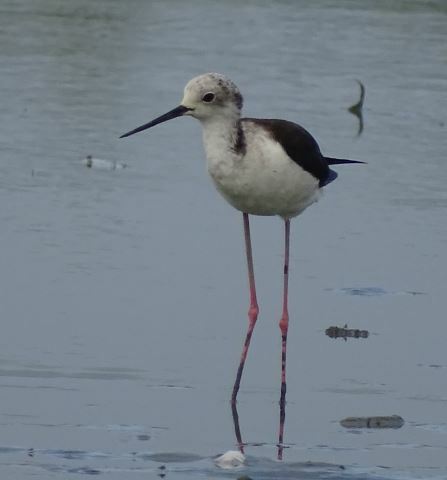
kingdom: Animalia
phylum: Chordata
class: Aves
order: Charadriiformes
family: Recurvirostridae
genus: Himantopus
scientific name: Himantopus himantopus
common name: Black-winged stilt
